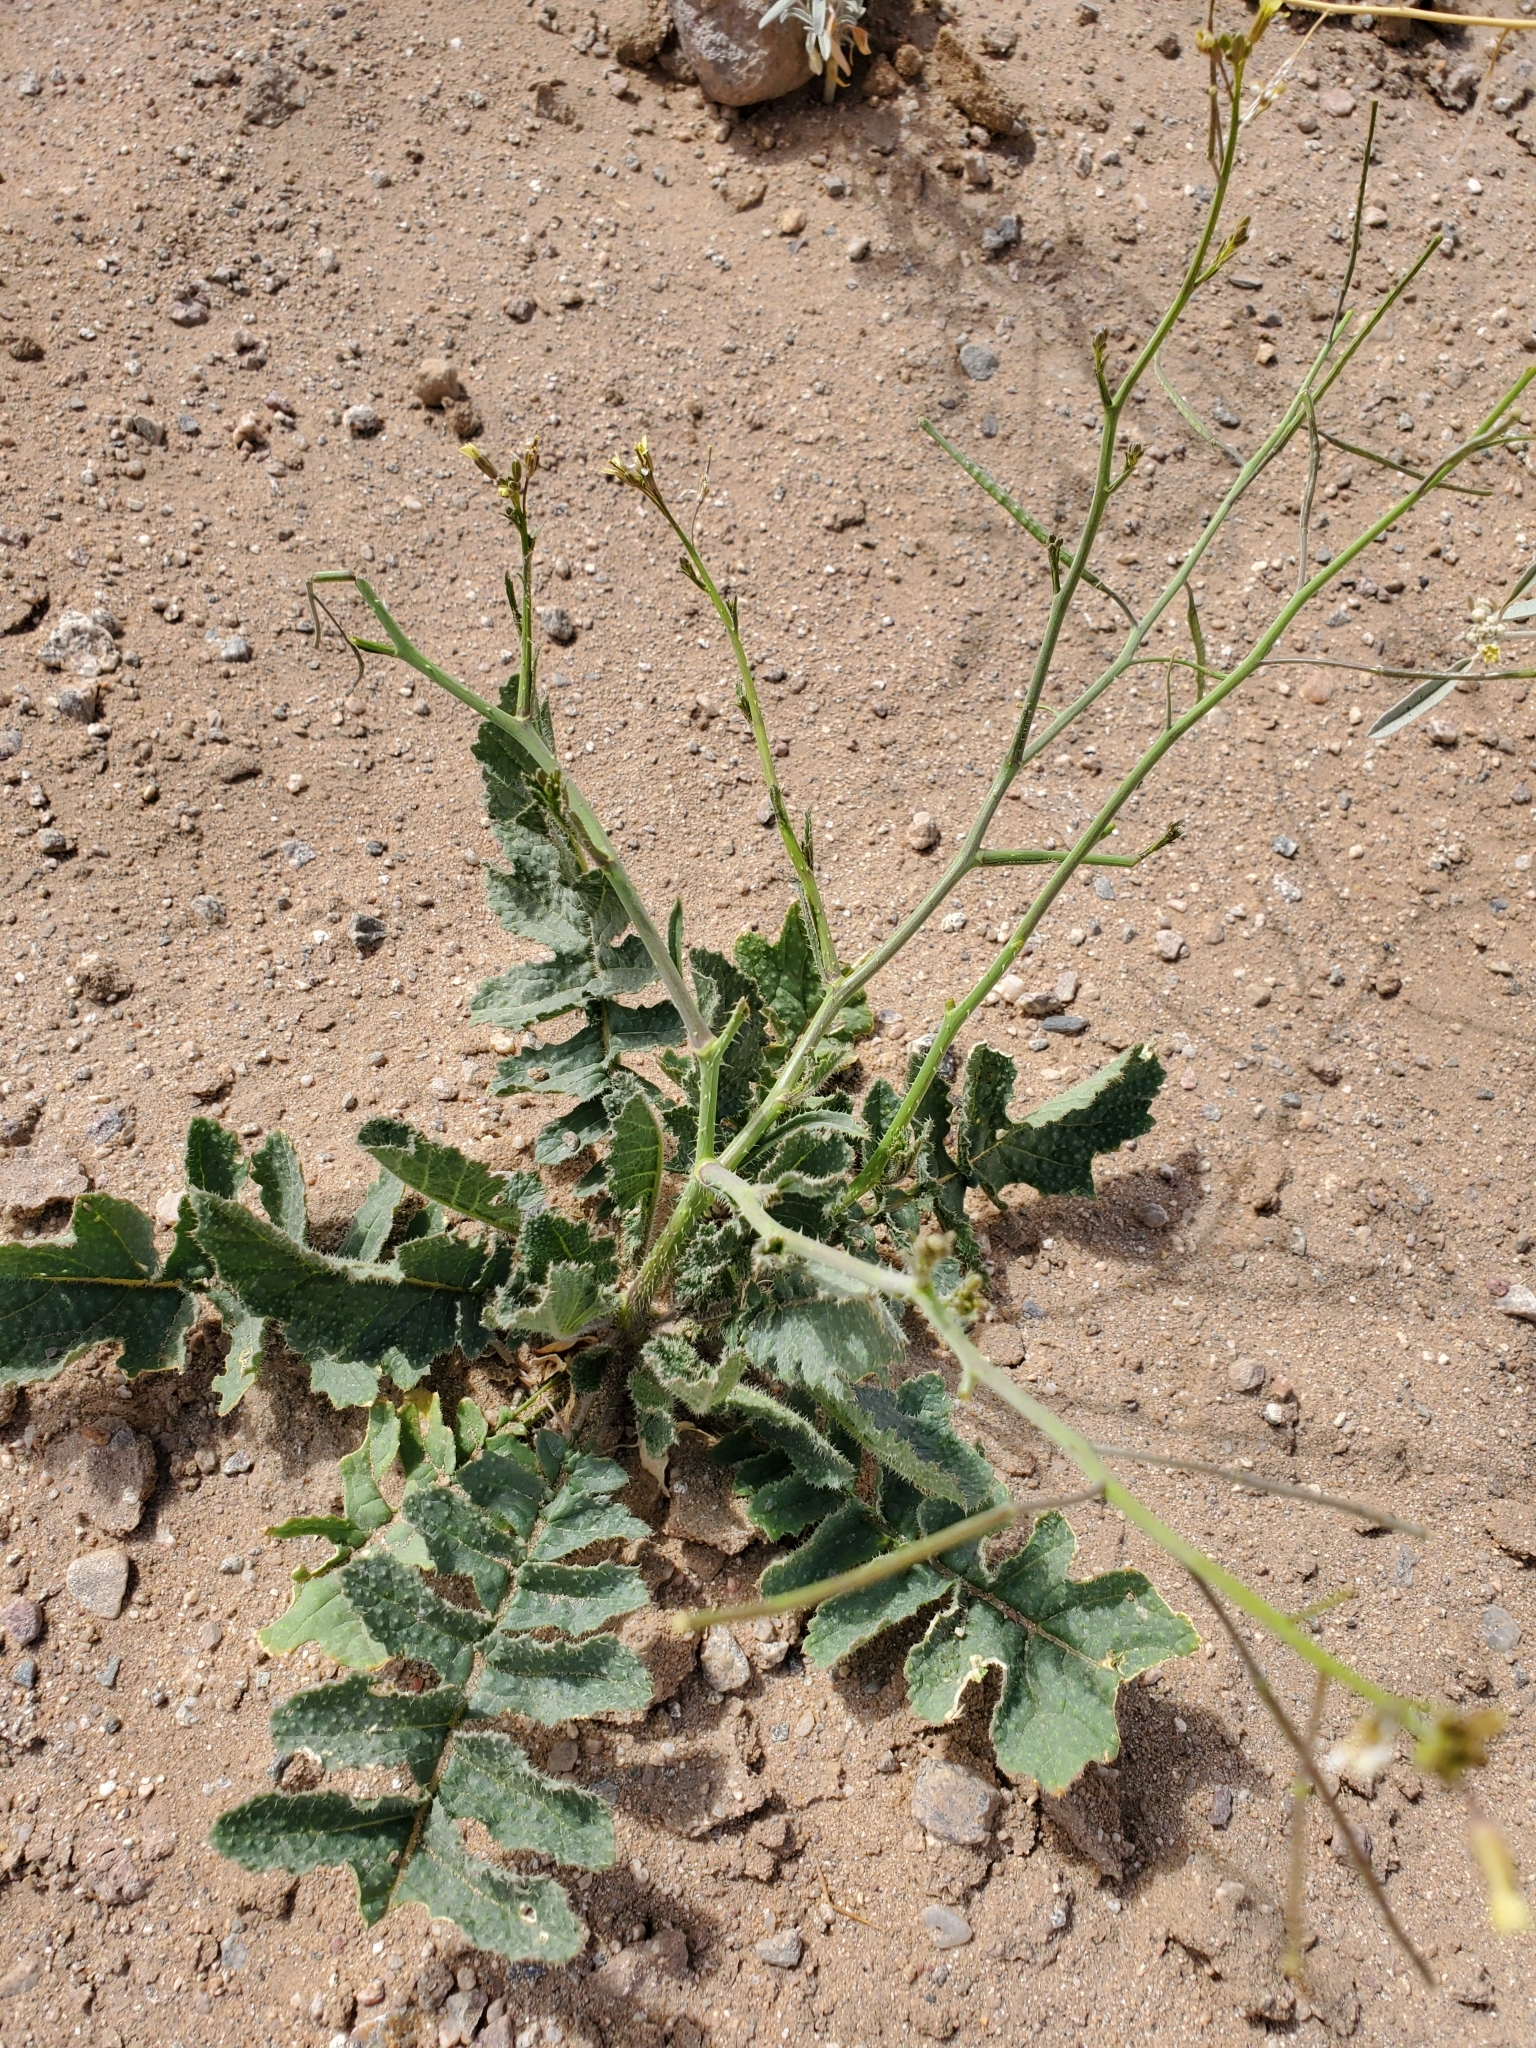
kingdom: Plantae
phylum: Tracheophyta
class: Magnoliopsida
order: Brassicales
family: Brassicaceae
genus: Brassica
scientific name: Brassica tournefortii
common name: Pale cabbage
